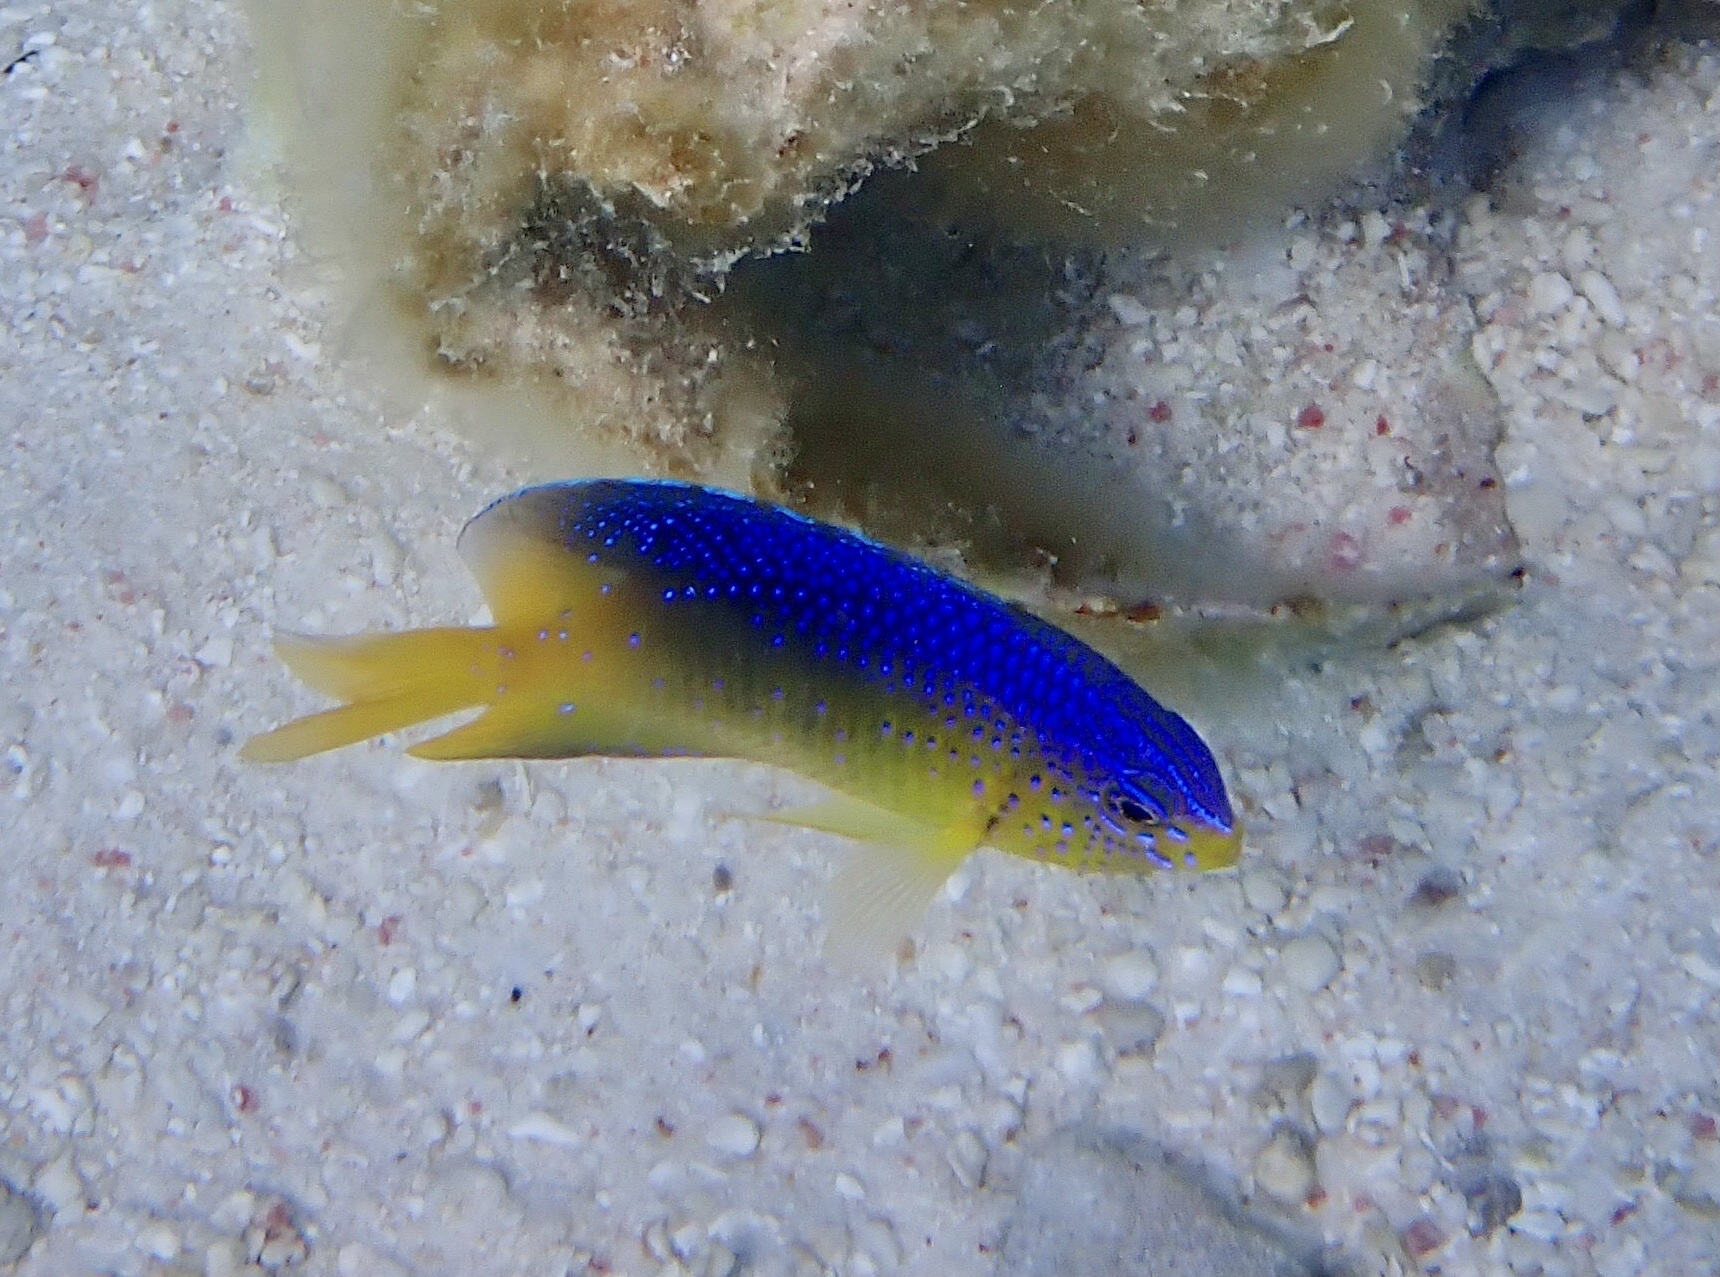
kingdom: Animalia
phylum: Chordata
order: Perciformes
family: Pomacentridae
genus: Stegastes
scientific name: Stegastes leucostictus
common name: Beaugregory
